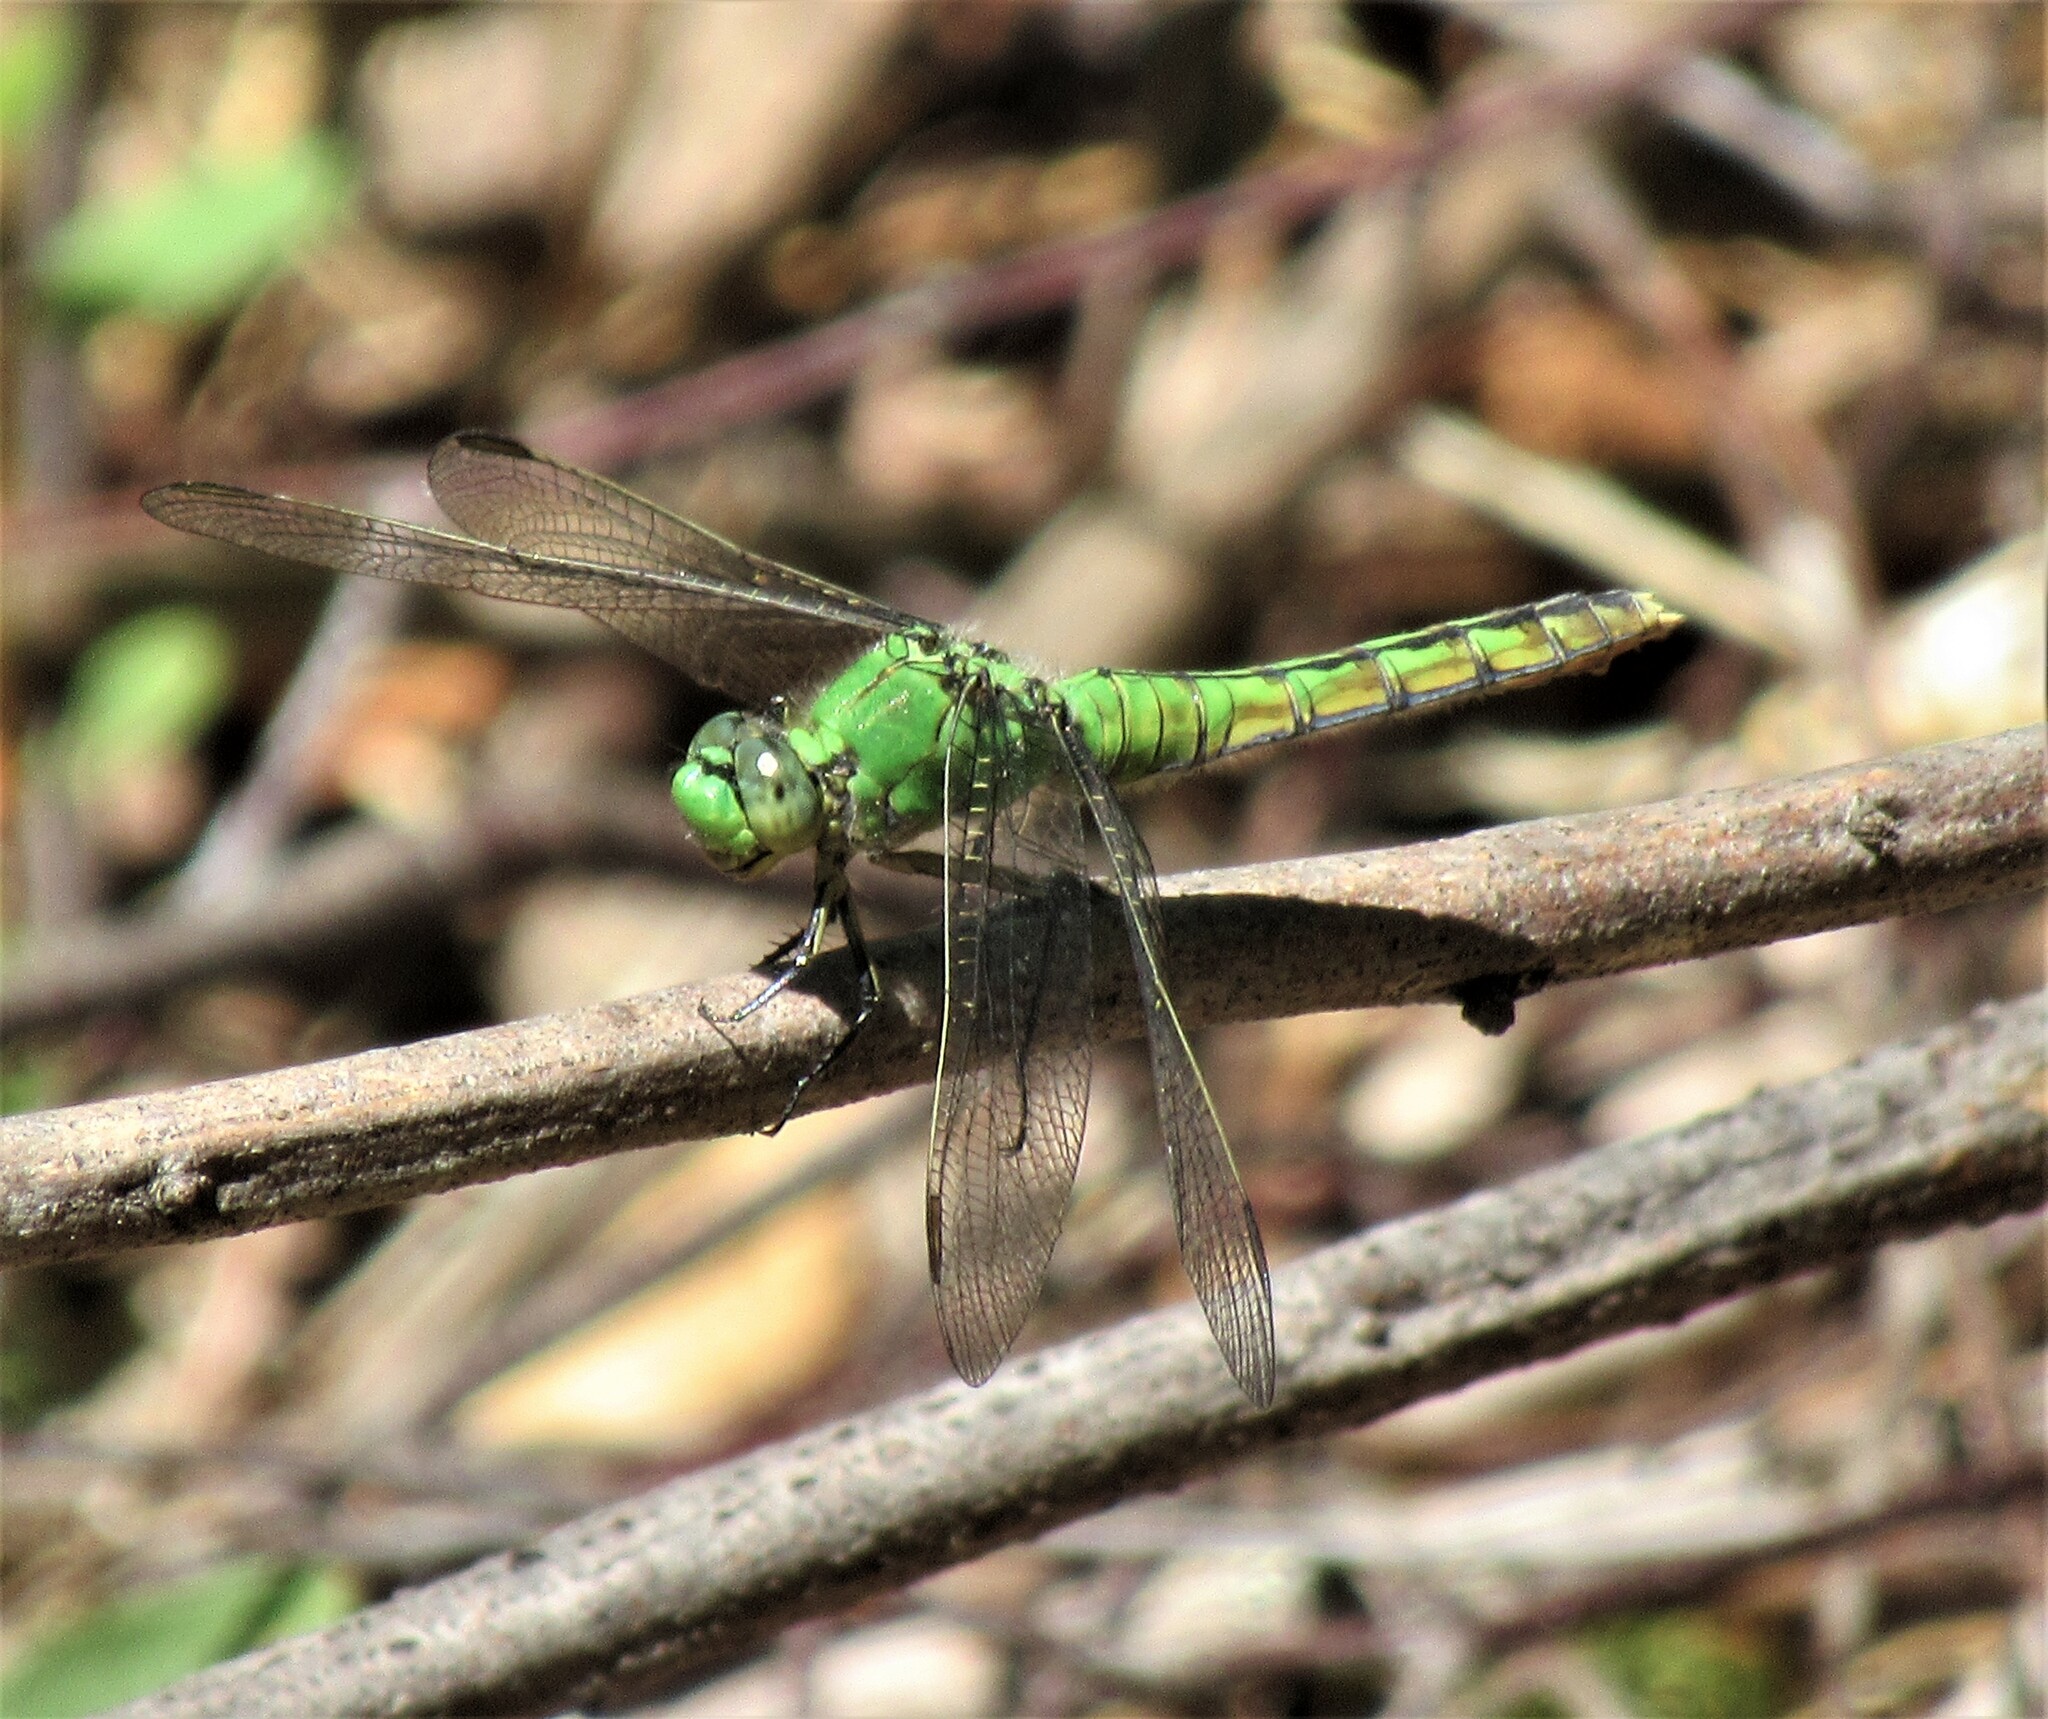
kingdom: Animalia
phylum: Arthropoda
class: Insecta
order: Odonata
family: Libellulidae
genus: Erythemis
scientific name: Erythemis collocata
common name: Western pondhawk
